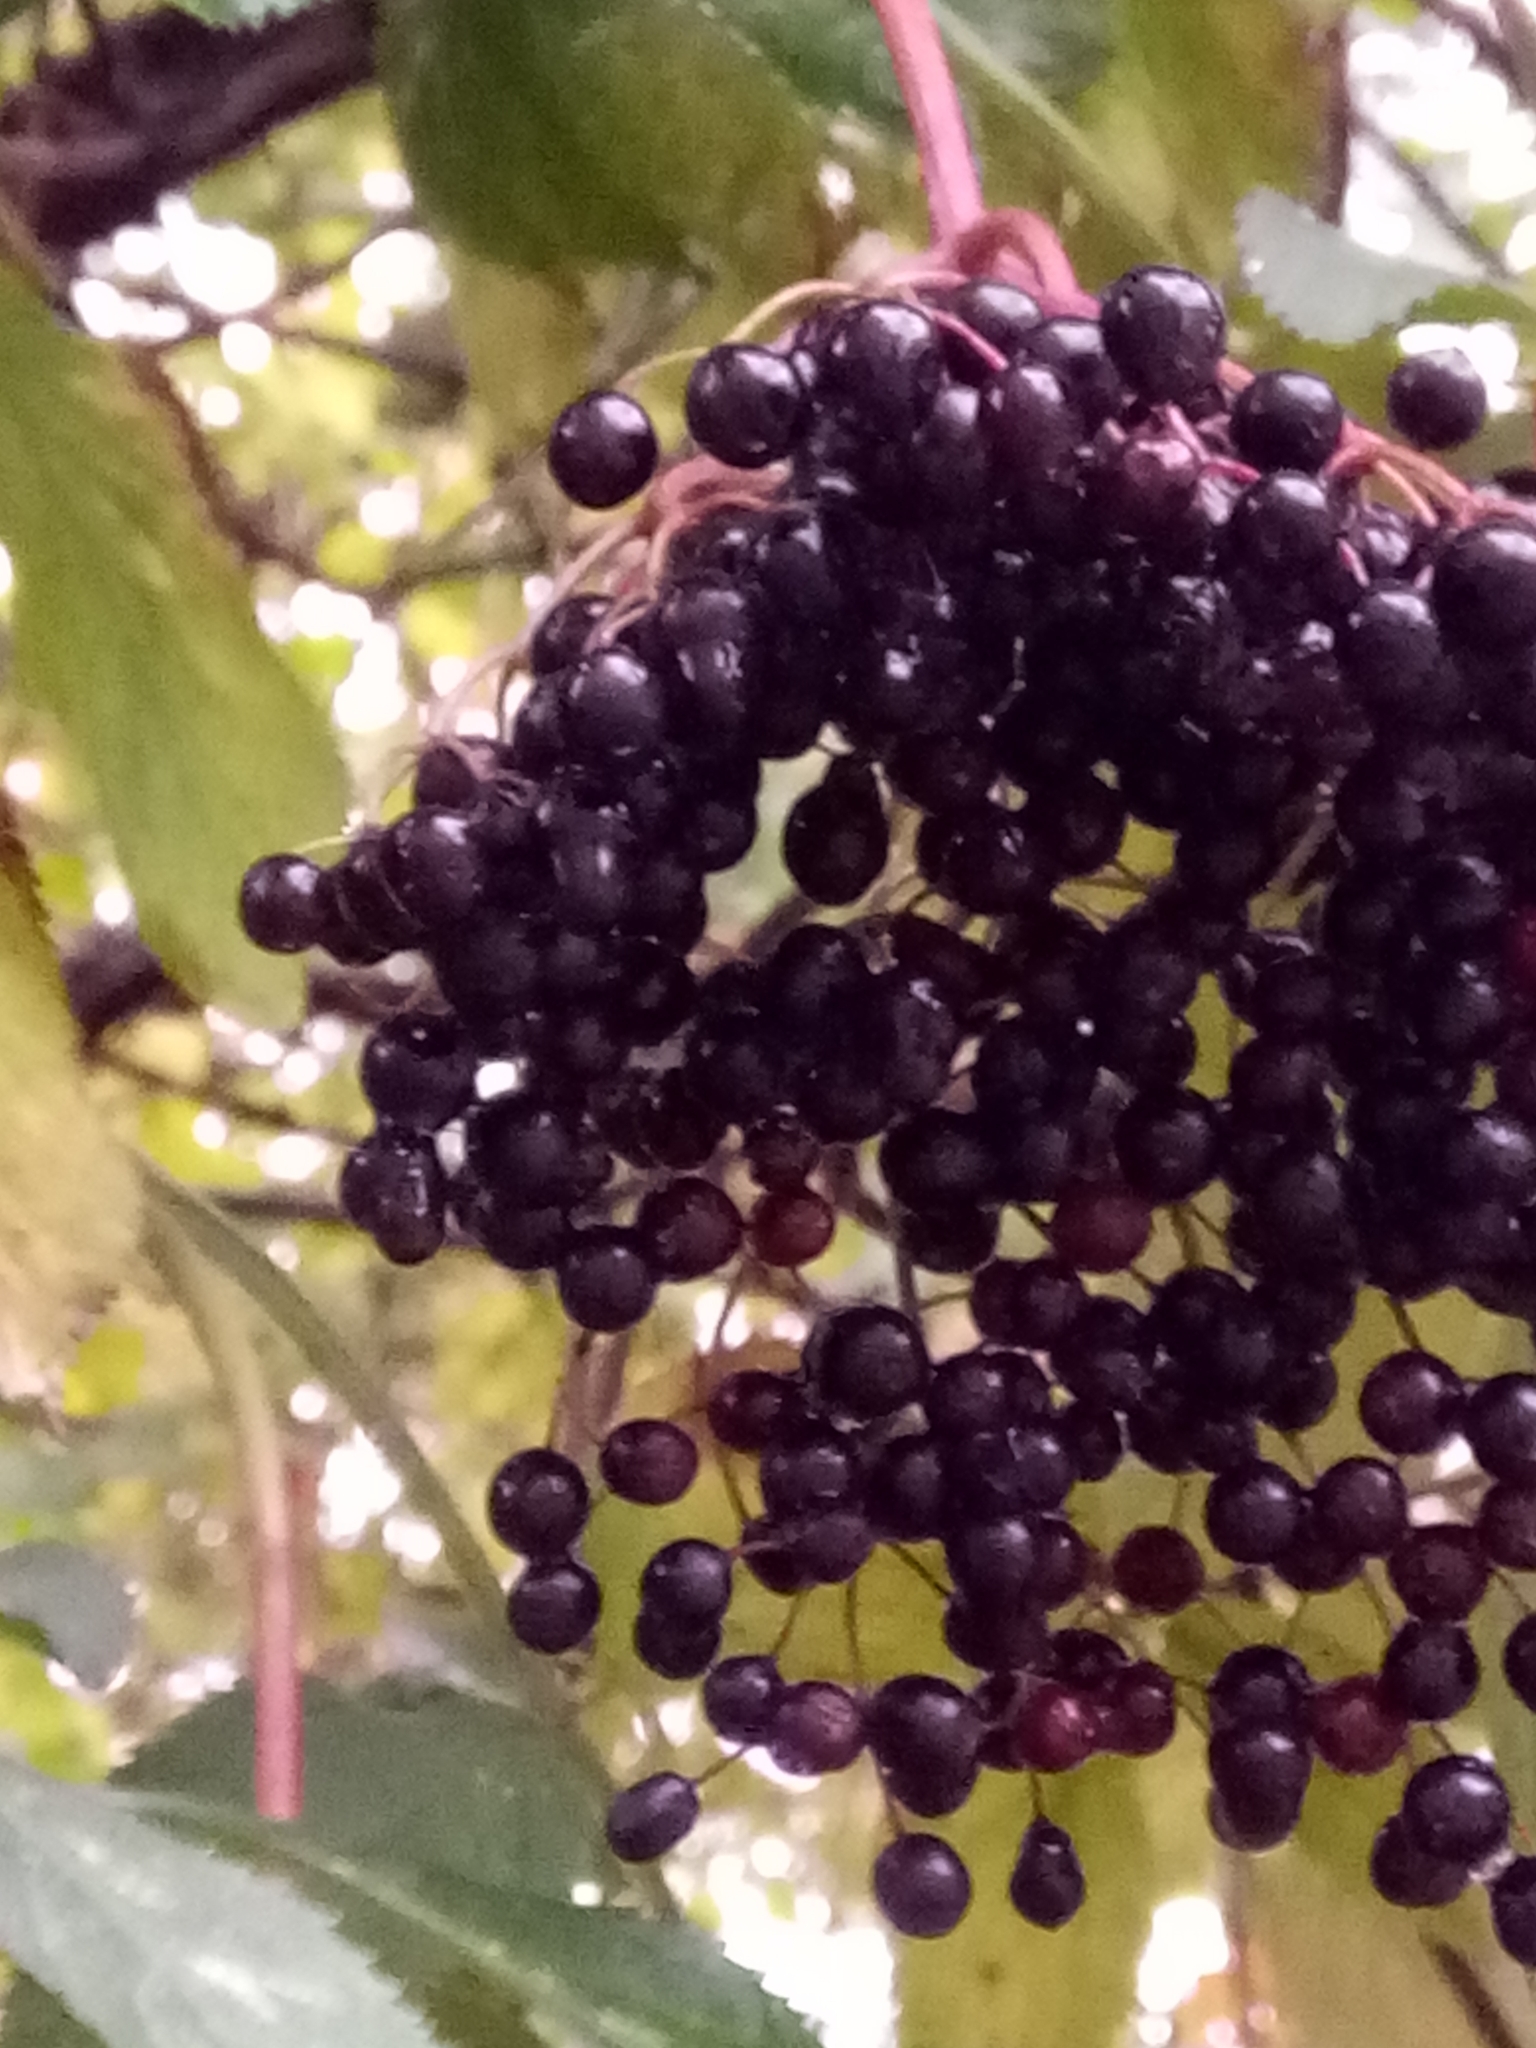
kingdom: Plantae
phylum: Tracheophyta
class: Magnoliopsida
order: Dipsacales
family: Viburnaceae
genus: Sambucus
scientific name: Sambucus nigra
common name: Elder
